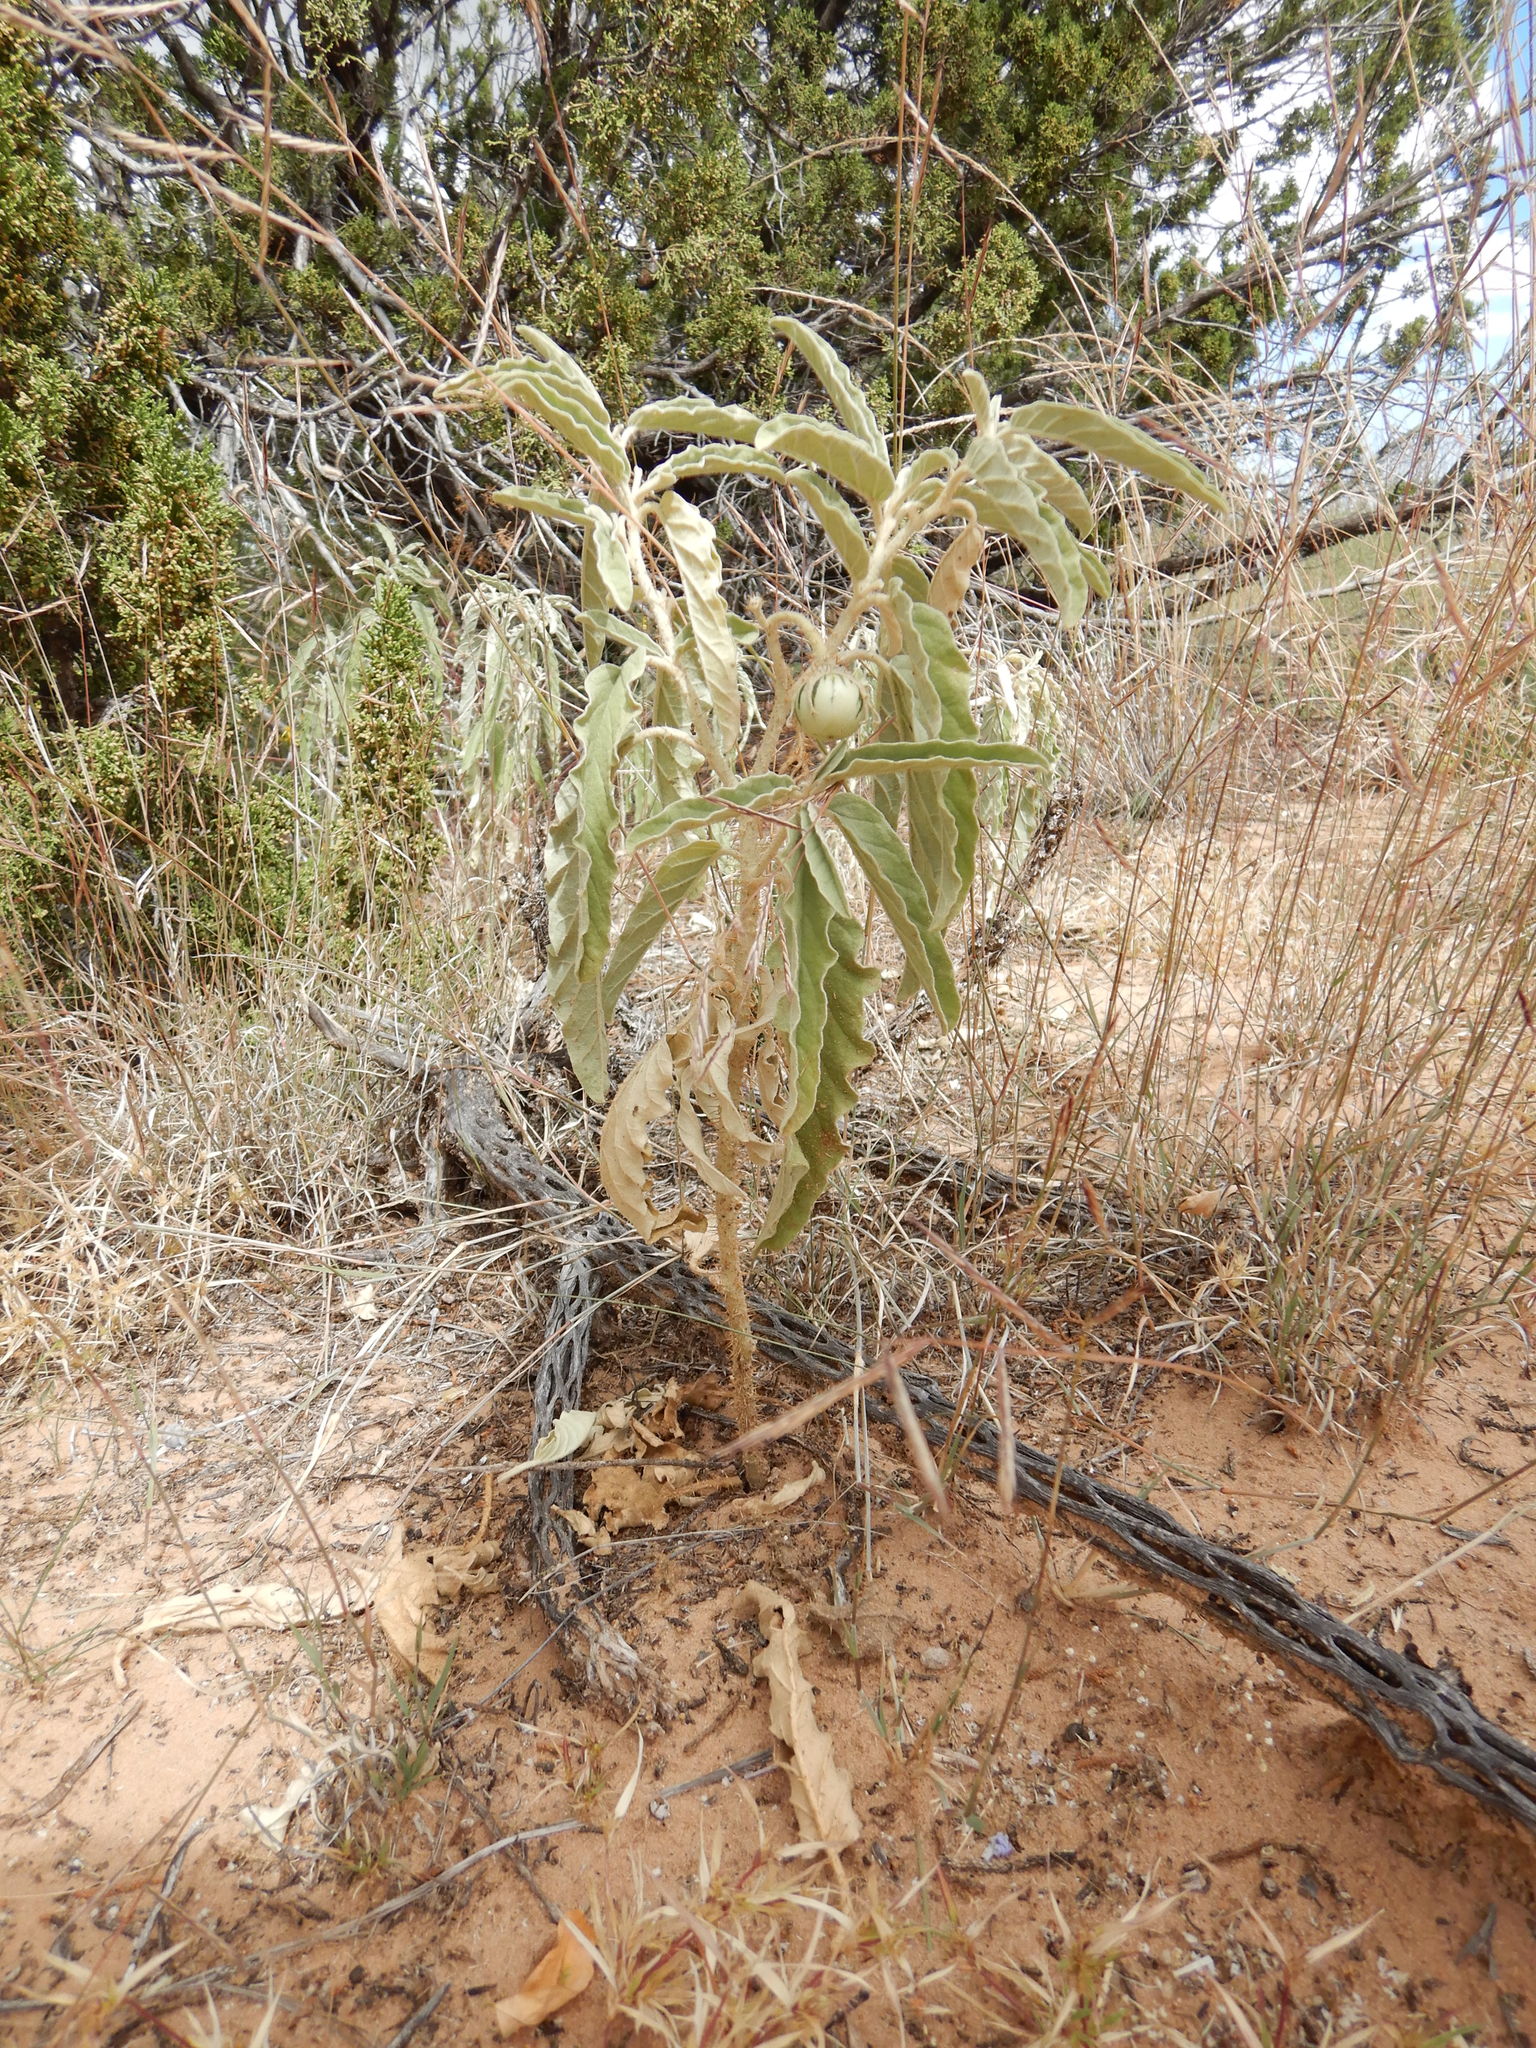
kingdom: Plantae
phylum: Tracheophyta
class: Magnoliopsida
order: Solanales
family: Solanaceae
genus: Solanum
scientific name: Solanum elaeagnifolium
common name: Silverleaf nightshade
